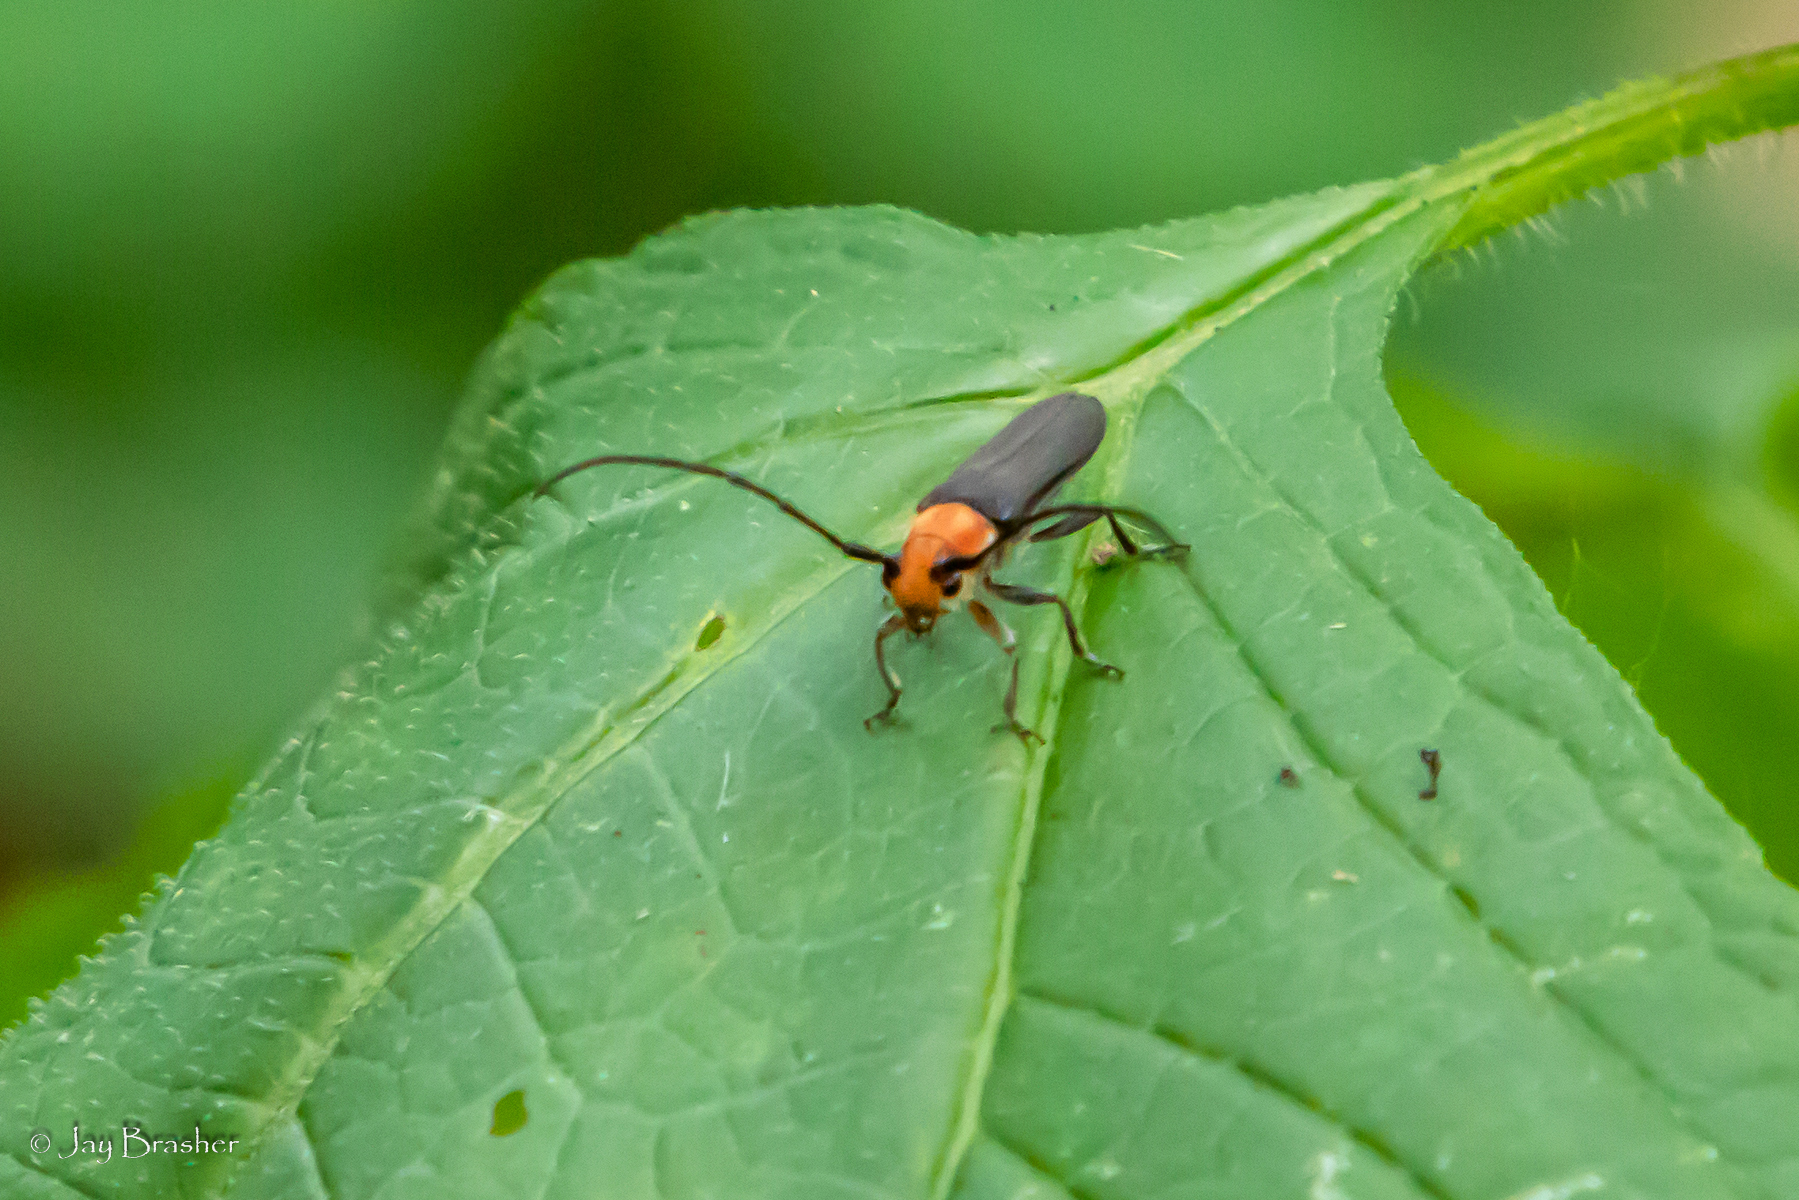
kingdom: Animalia
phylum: Arthropoda
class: Insecta
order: Coleoptera
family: Cerambycidae
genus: Oberea
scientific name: Oberea affinis
